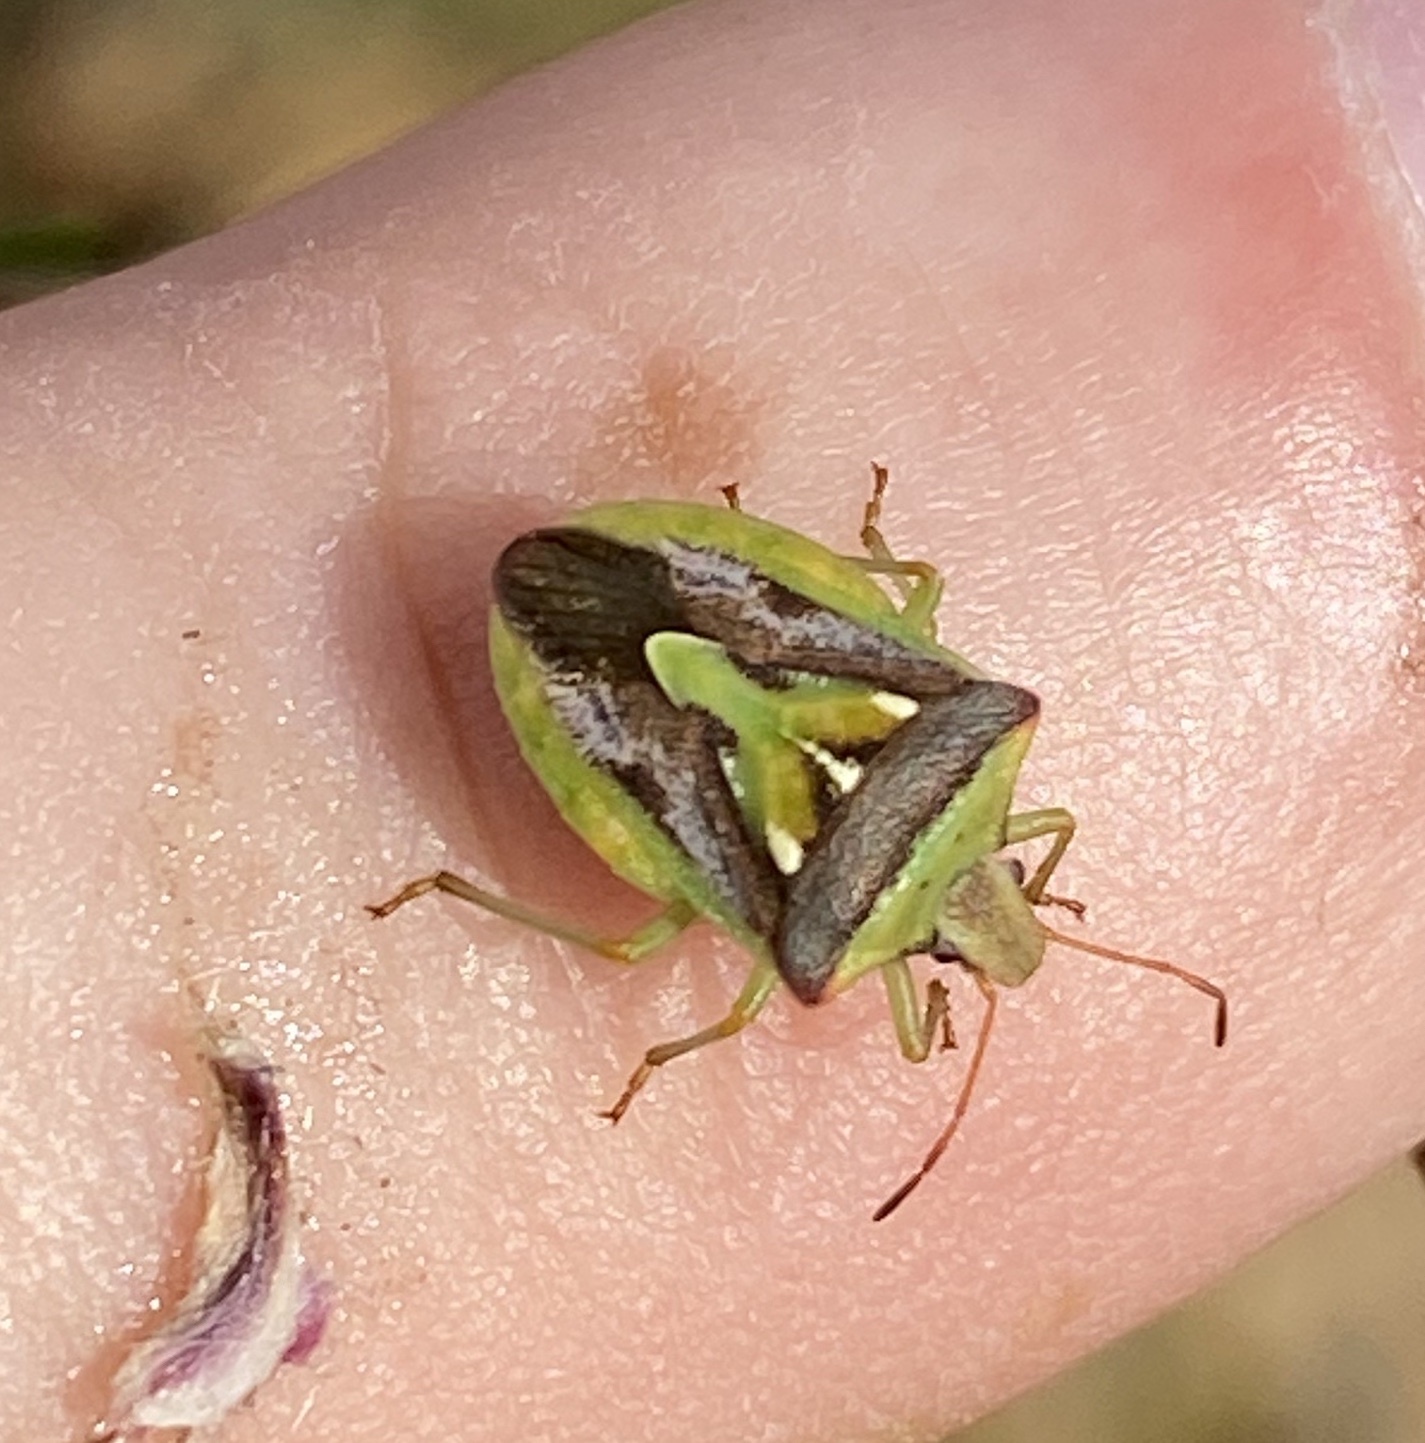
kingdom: Animalia
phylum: Arthropoda
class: Insecta
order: Hemiptera
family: Pentatomidae
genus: Veterna
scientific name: Veterna
